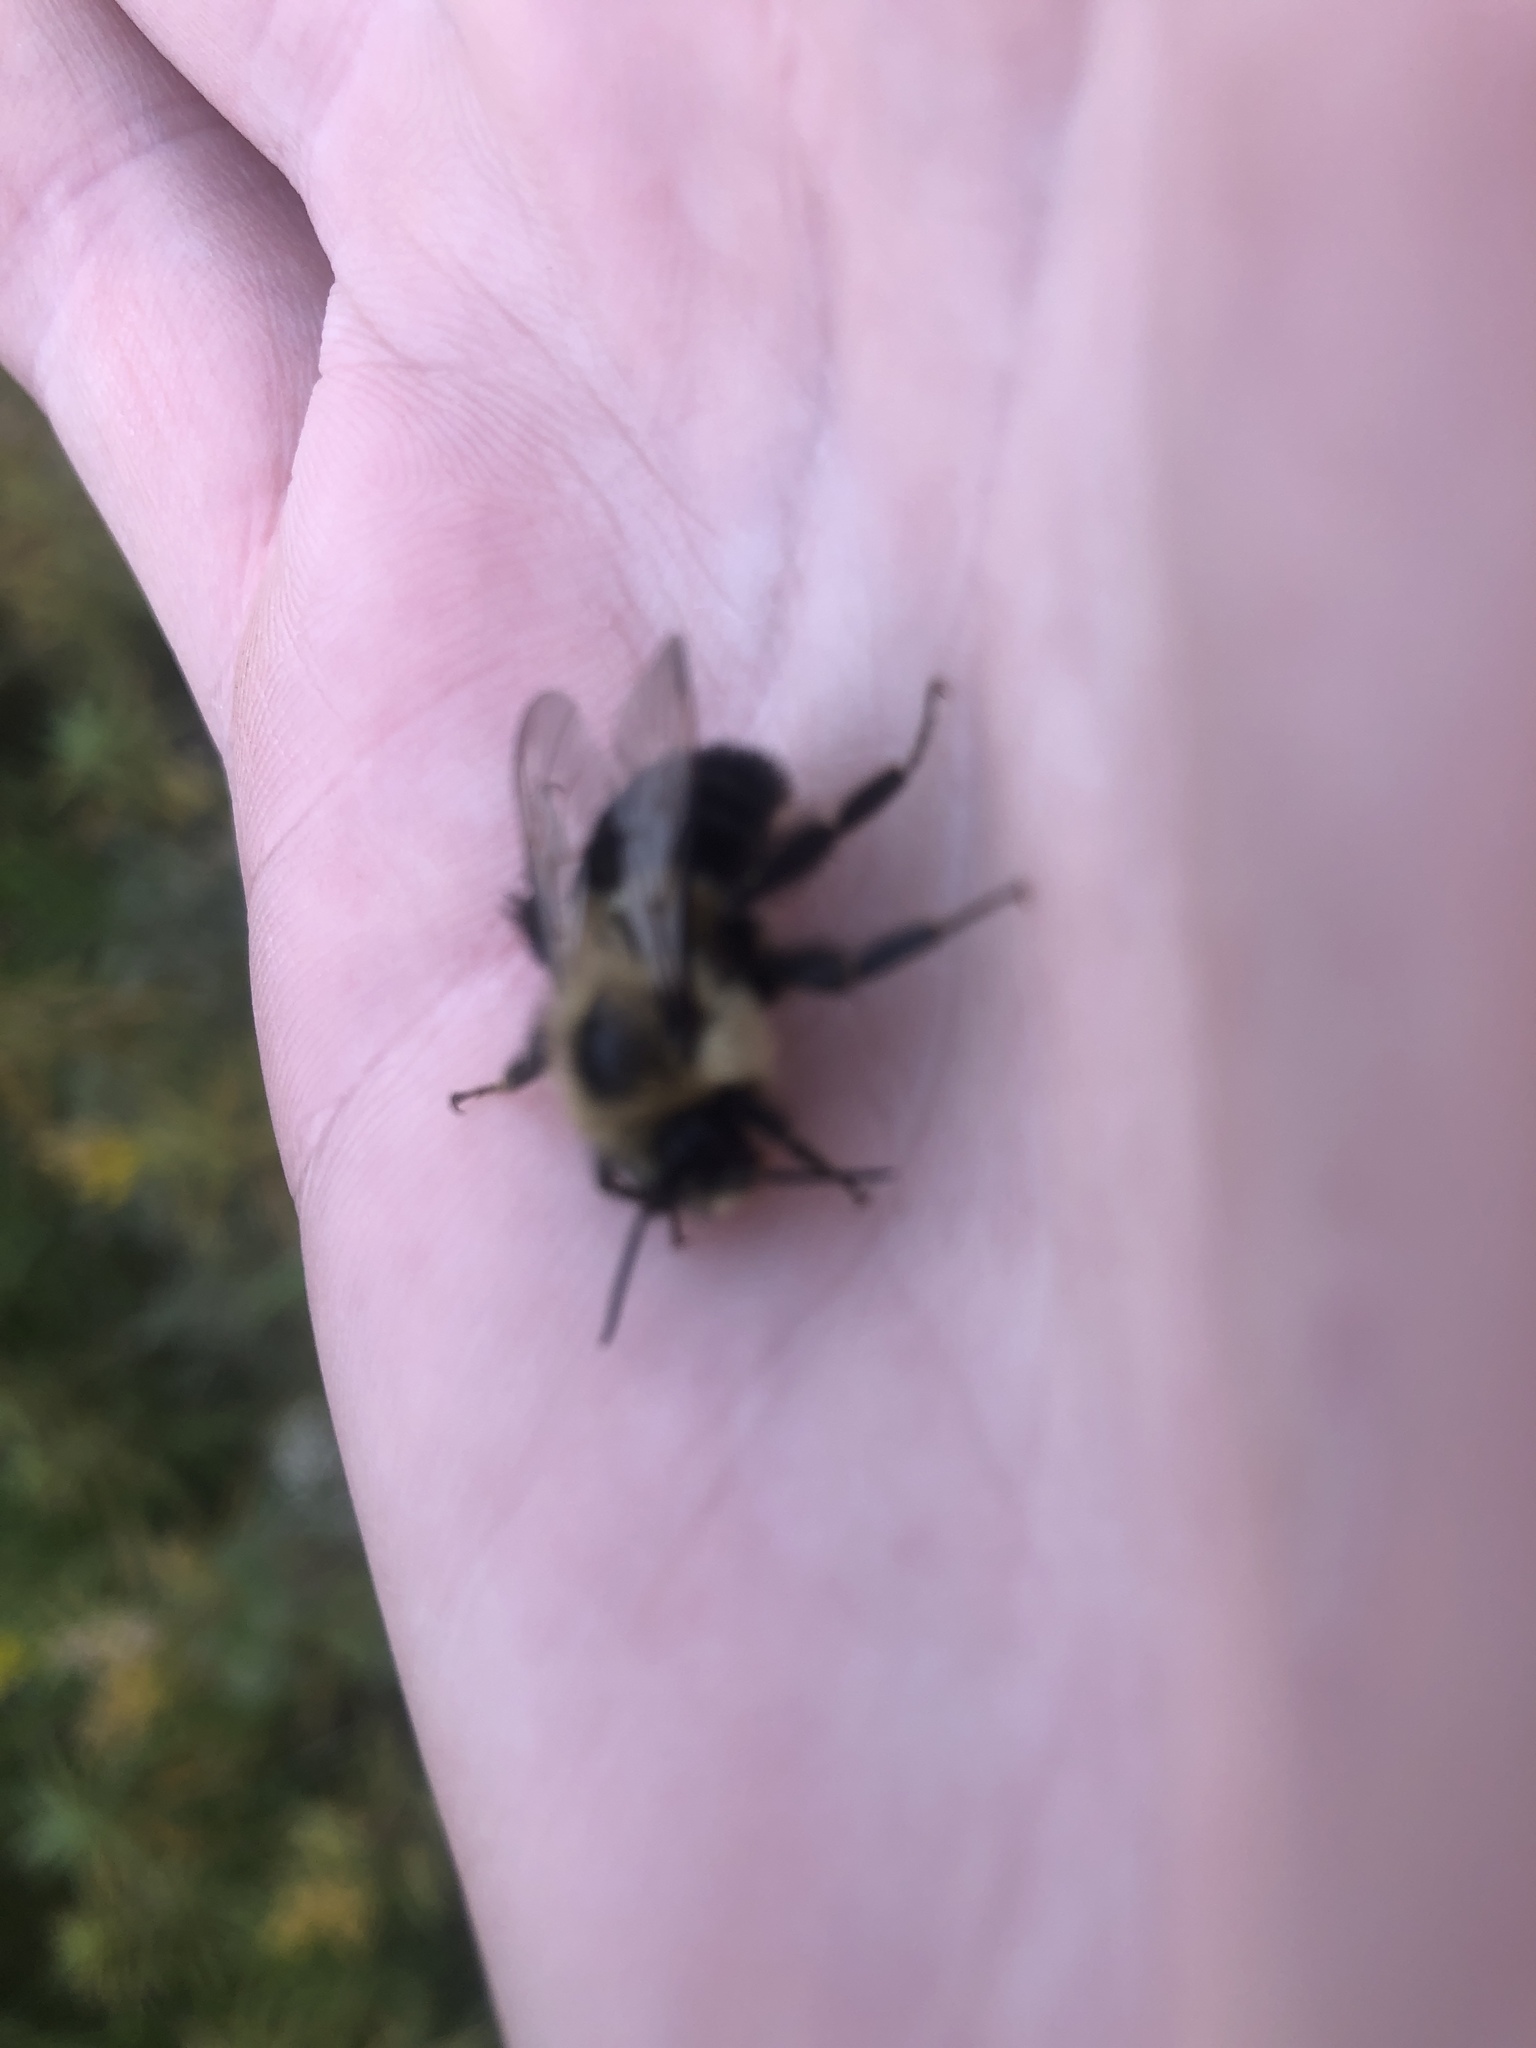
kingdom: Animalia
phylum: Arthropoda
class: Insecta
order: Hymenoptera
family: Apidae
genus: Bombus
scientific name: Bombus impatiens
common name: Common eastern bumble bee
